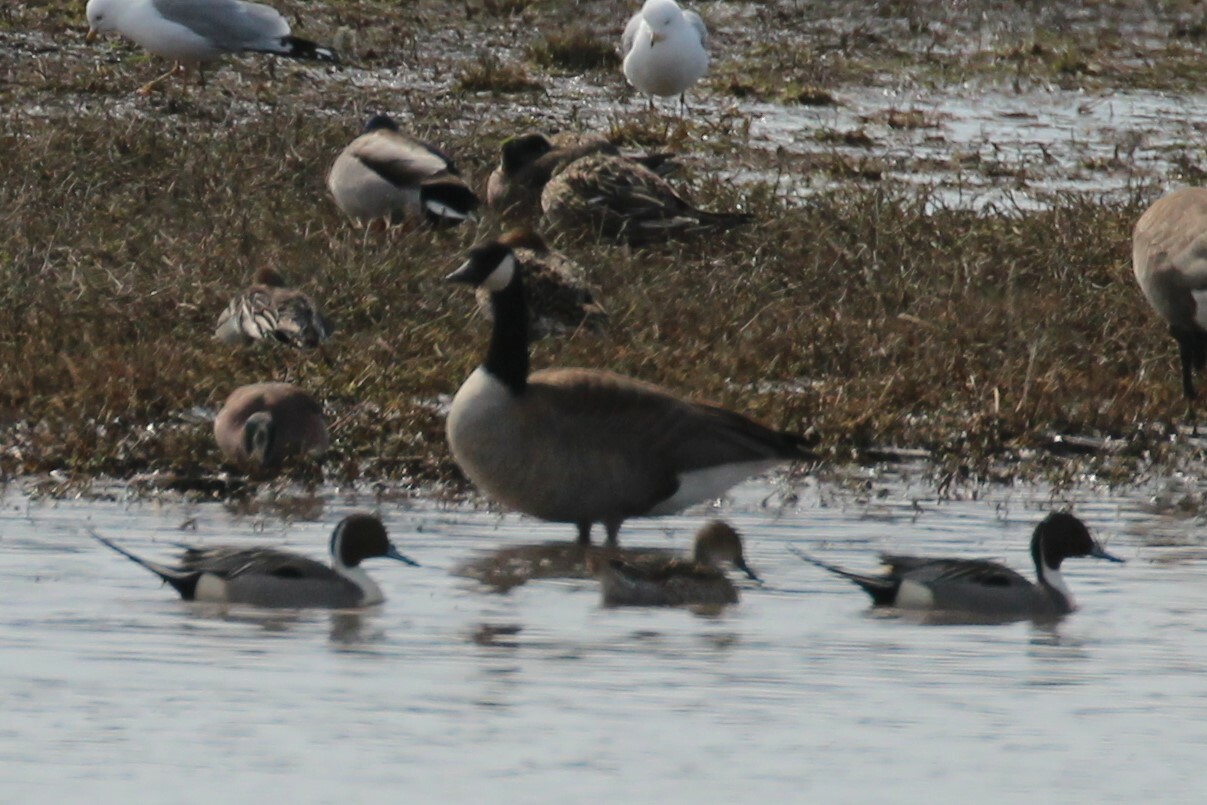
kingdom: Animalia
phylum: Chordata
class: Aves
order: Anseriformes
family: Anatidae
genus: Anas
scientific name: Anas acuta
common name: Northern pintail
